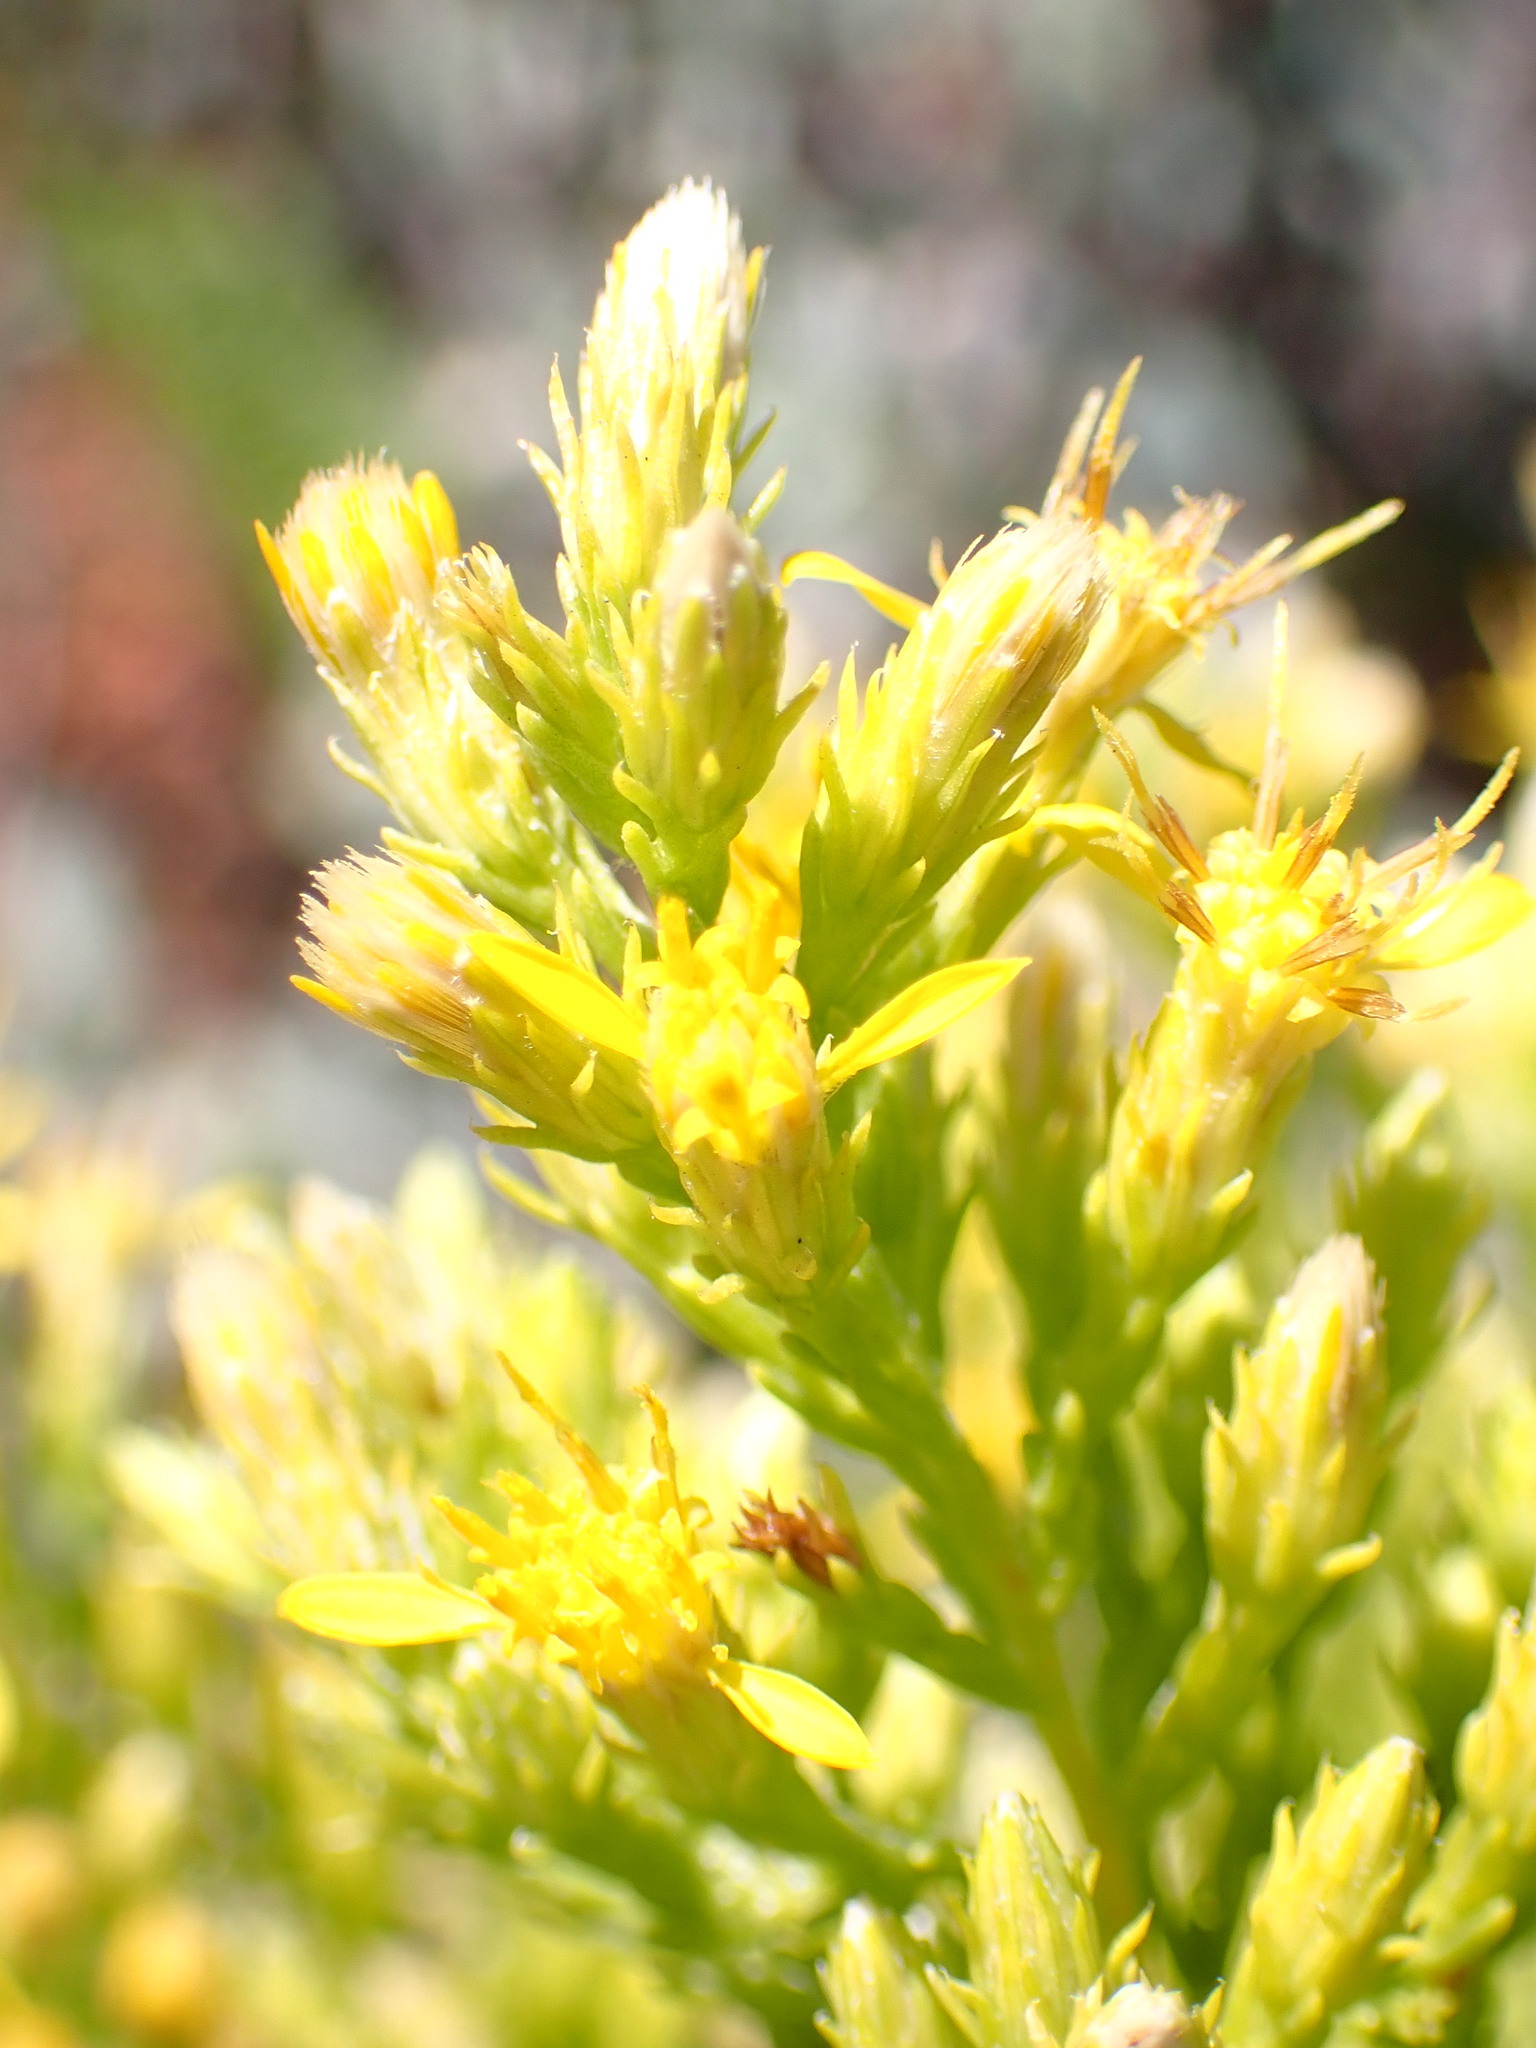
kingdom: Plantae
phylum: Tracheophyta
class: Magnoliopsida
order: Asterales
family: Asteraceae
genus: Ericameria
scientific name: Ericameria ericoides
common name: California goldenbush
